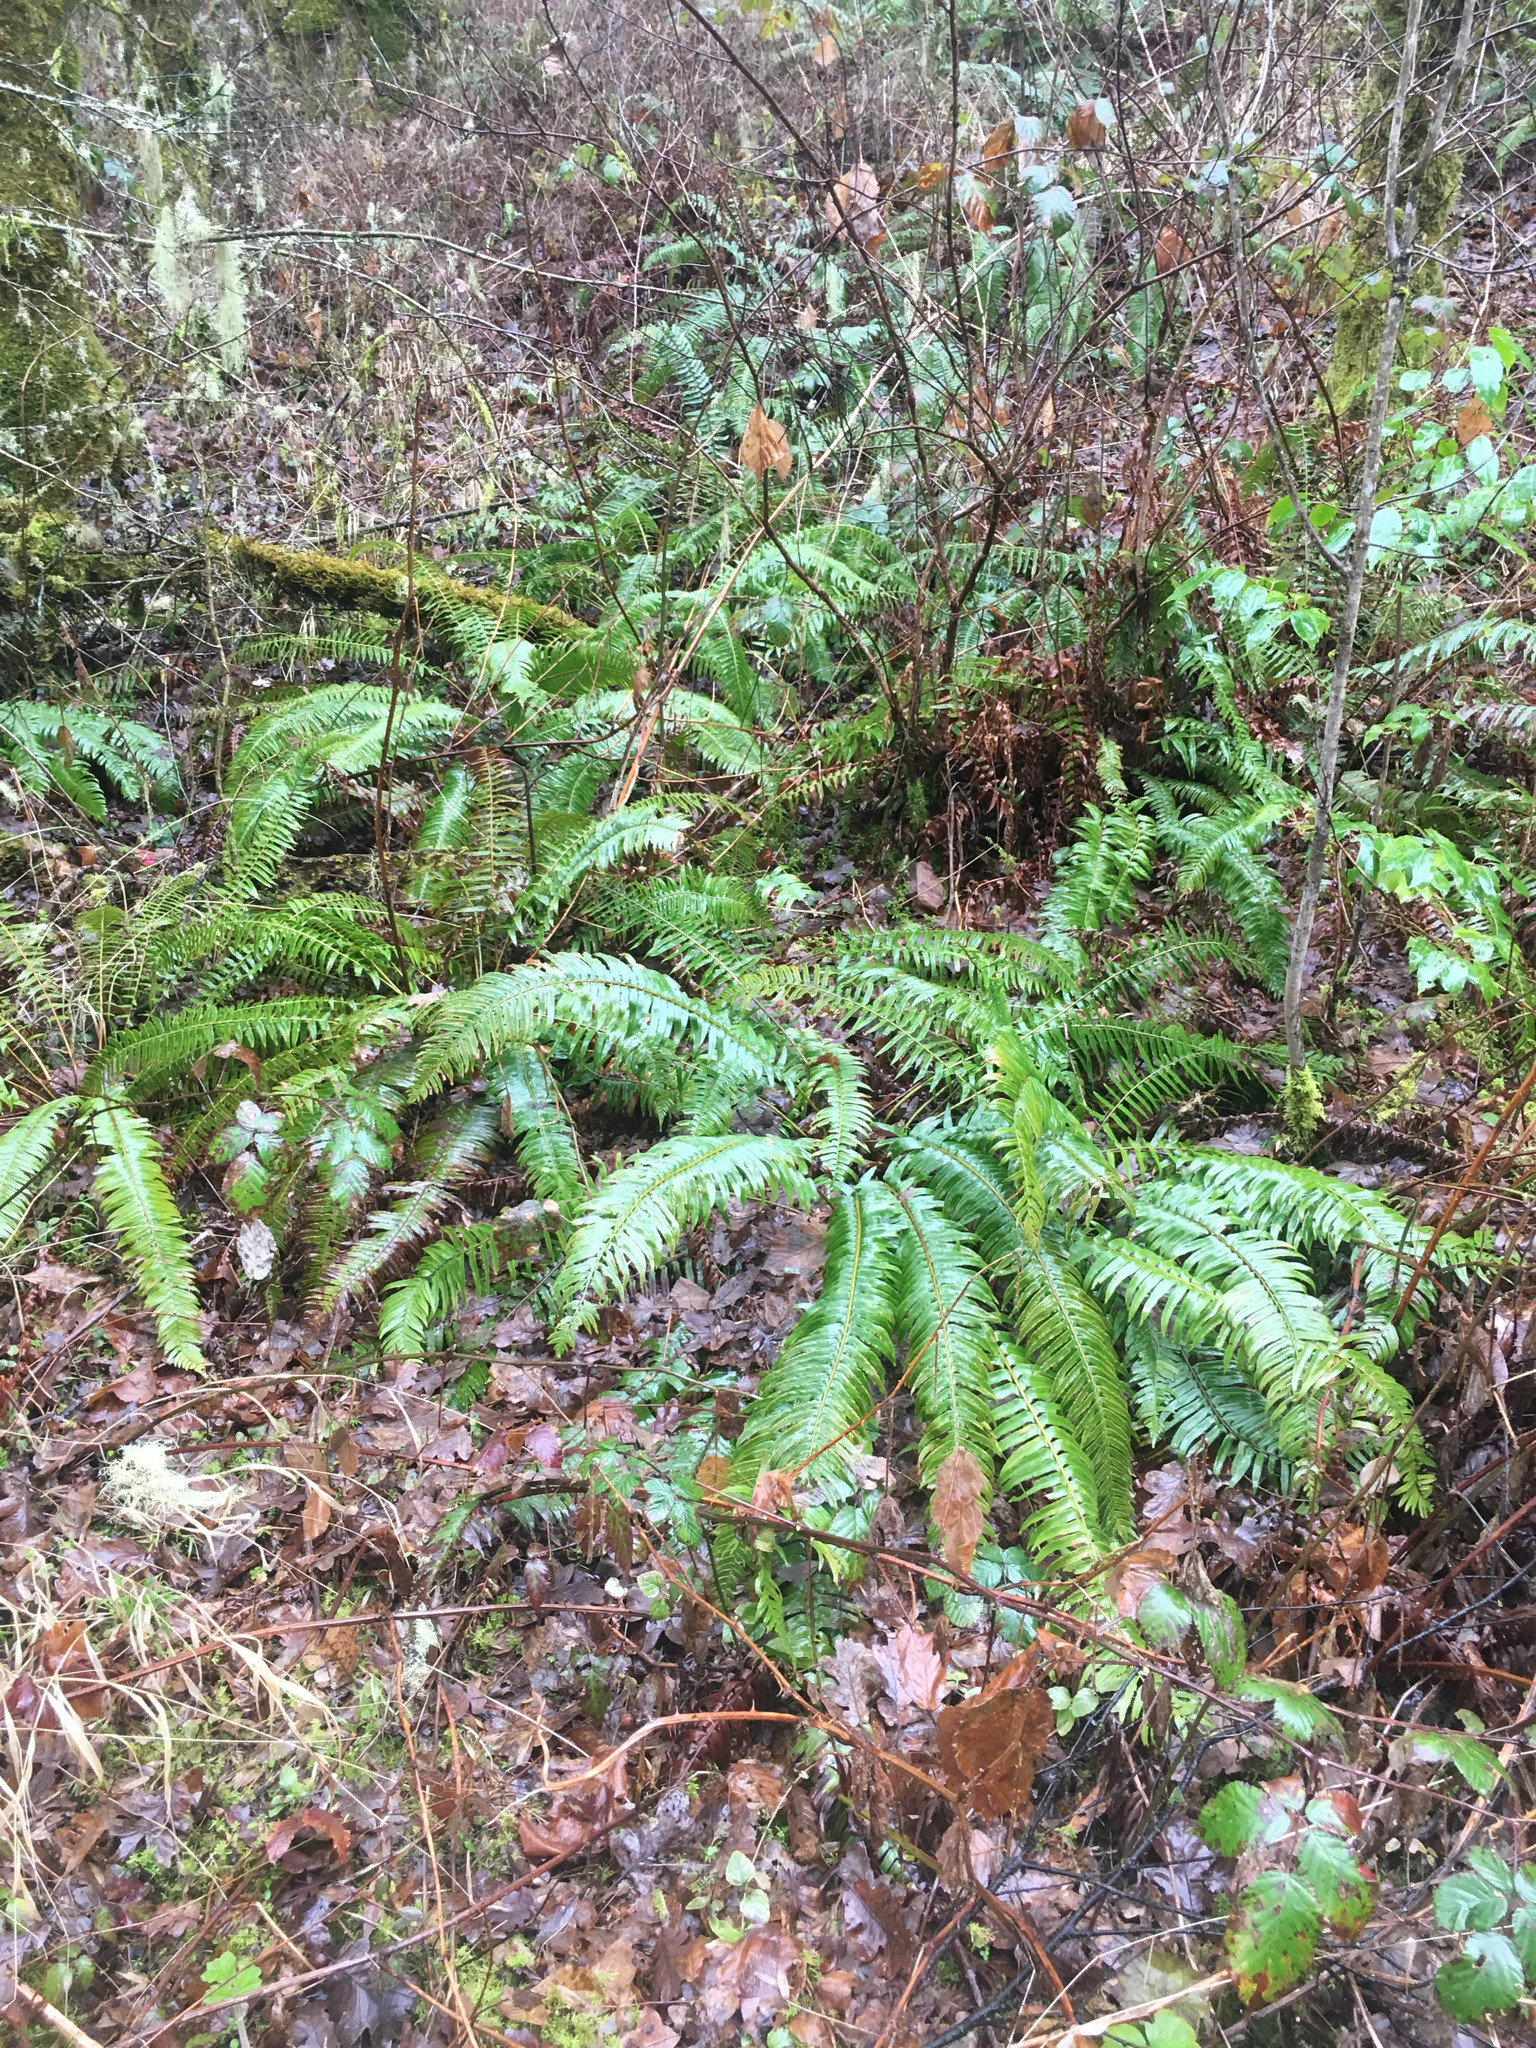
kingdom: Plantae
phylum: Tracheophyta
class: Polypodiopsida
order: Polypodiales
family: Dryopteridaceae
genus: Polystichum
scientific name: Polystichum munitum
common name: Western sword-fern
